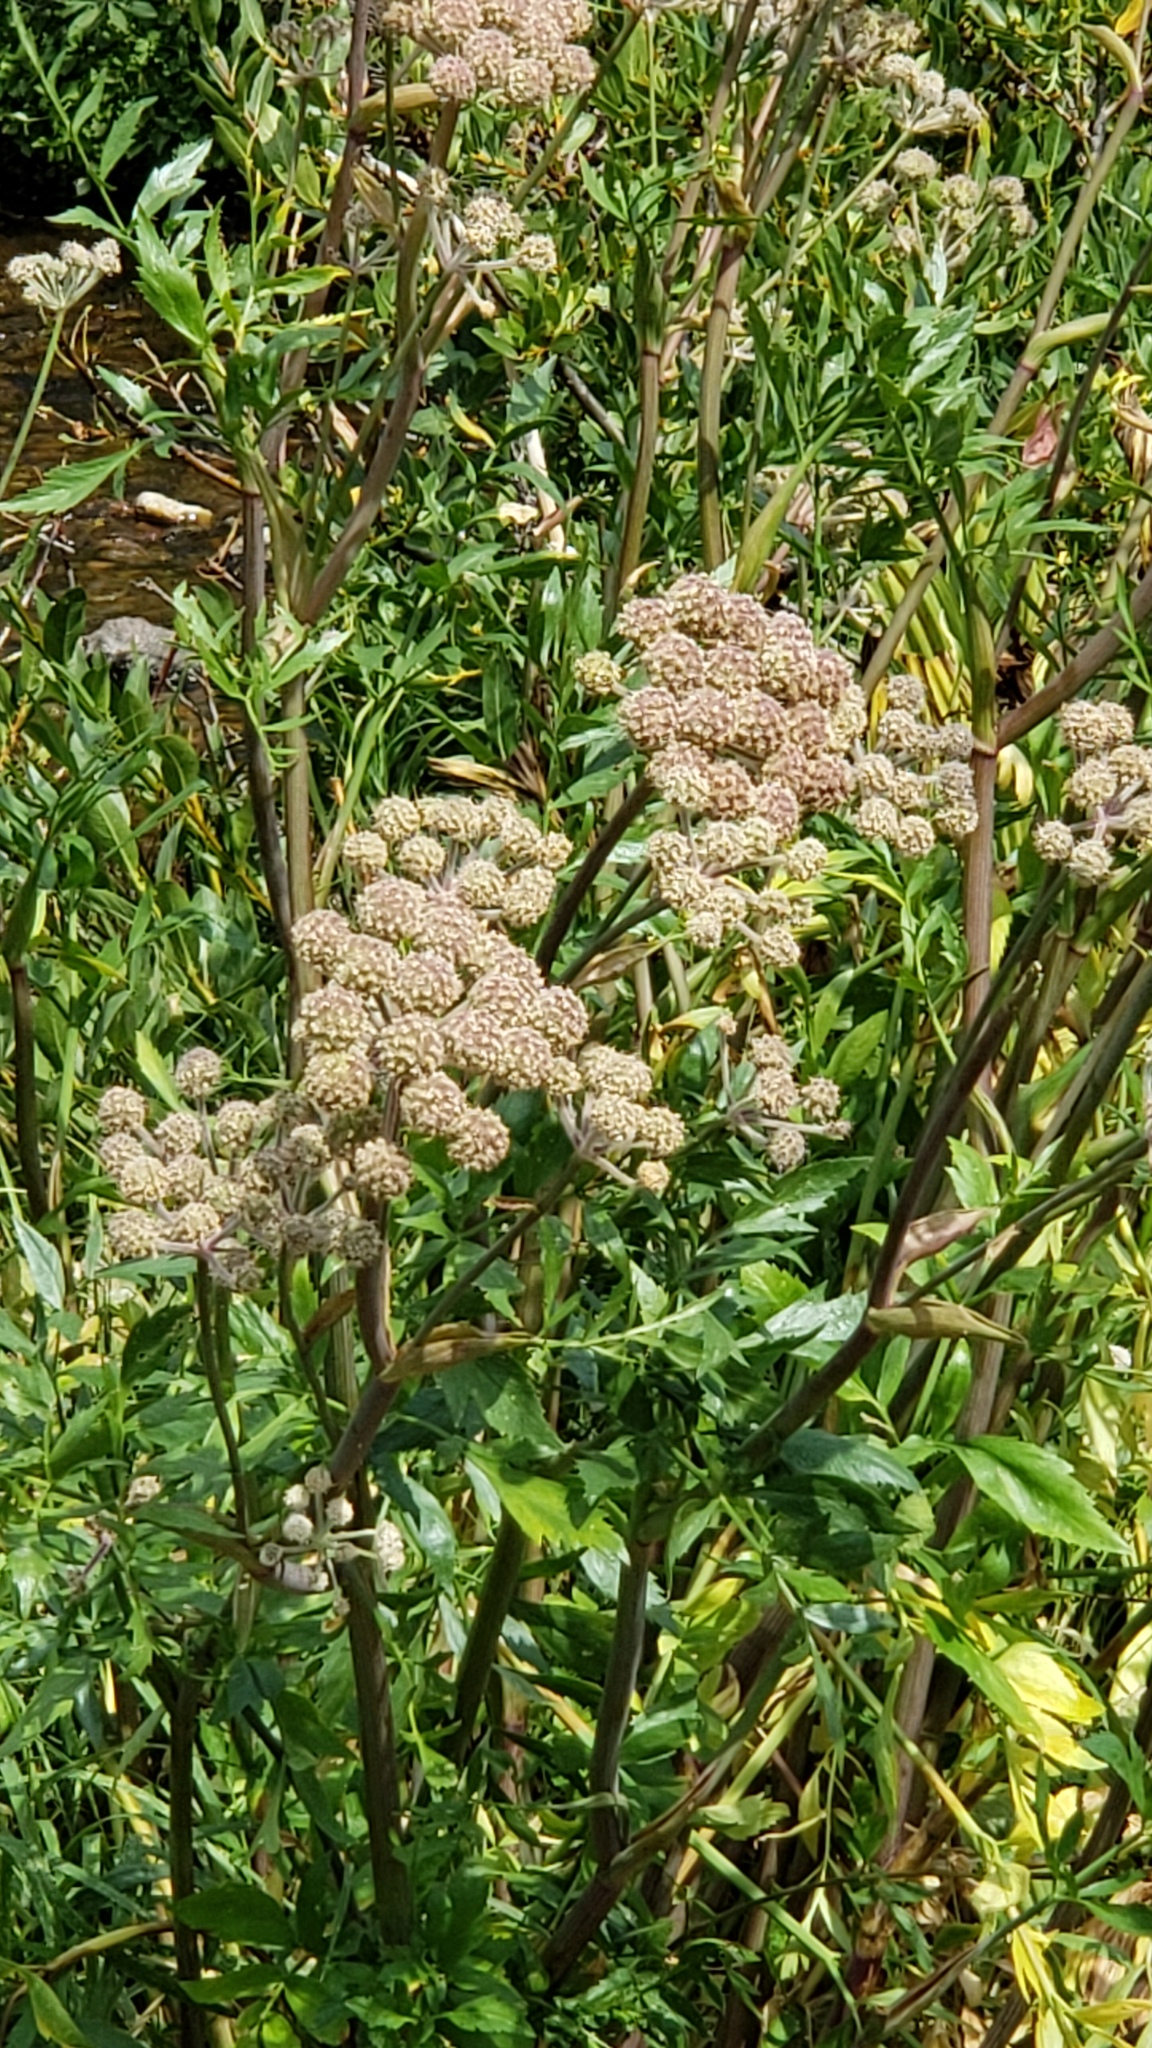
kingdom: Plantae
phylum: Tracheophyta
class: Magnoliopsida
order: Apiales
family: Apiaceae
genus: Angelica
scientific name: Angelica capitellata
